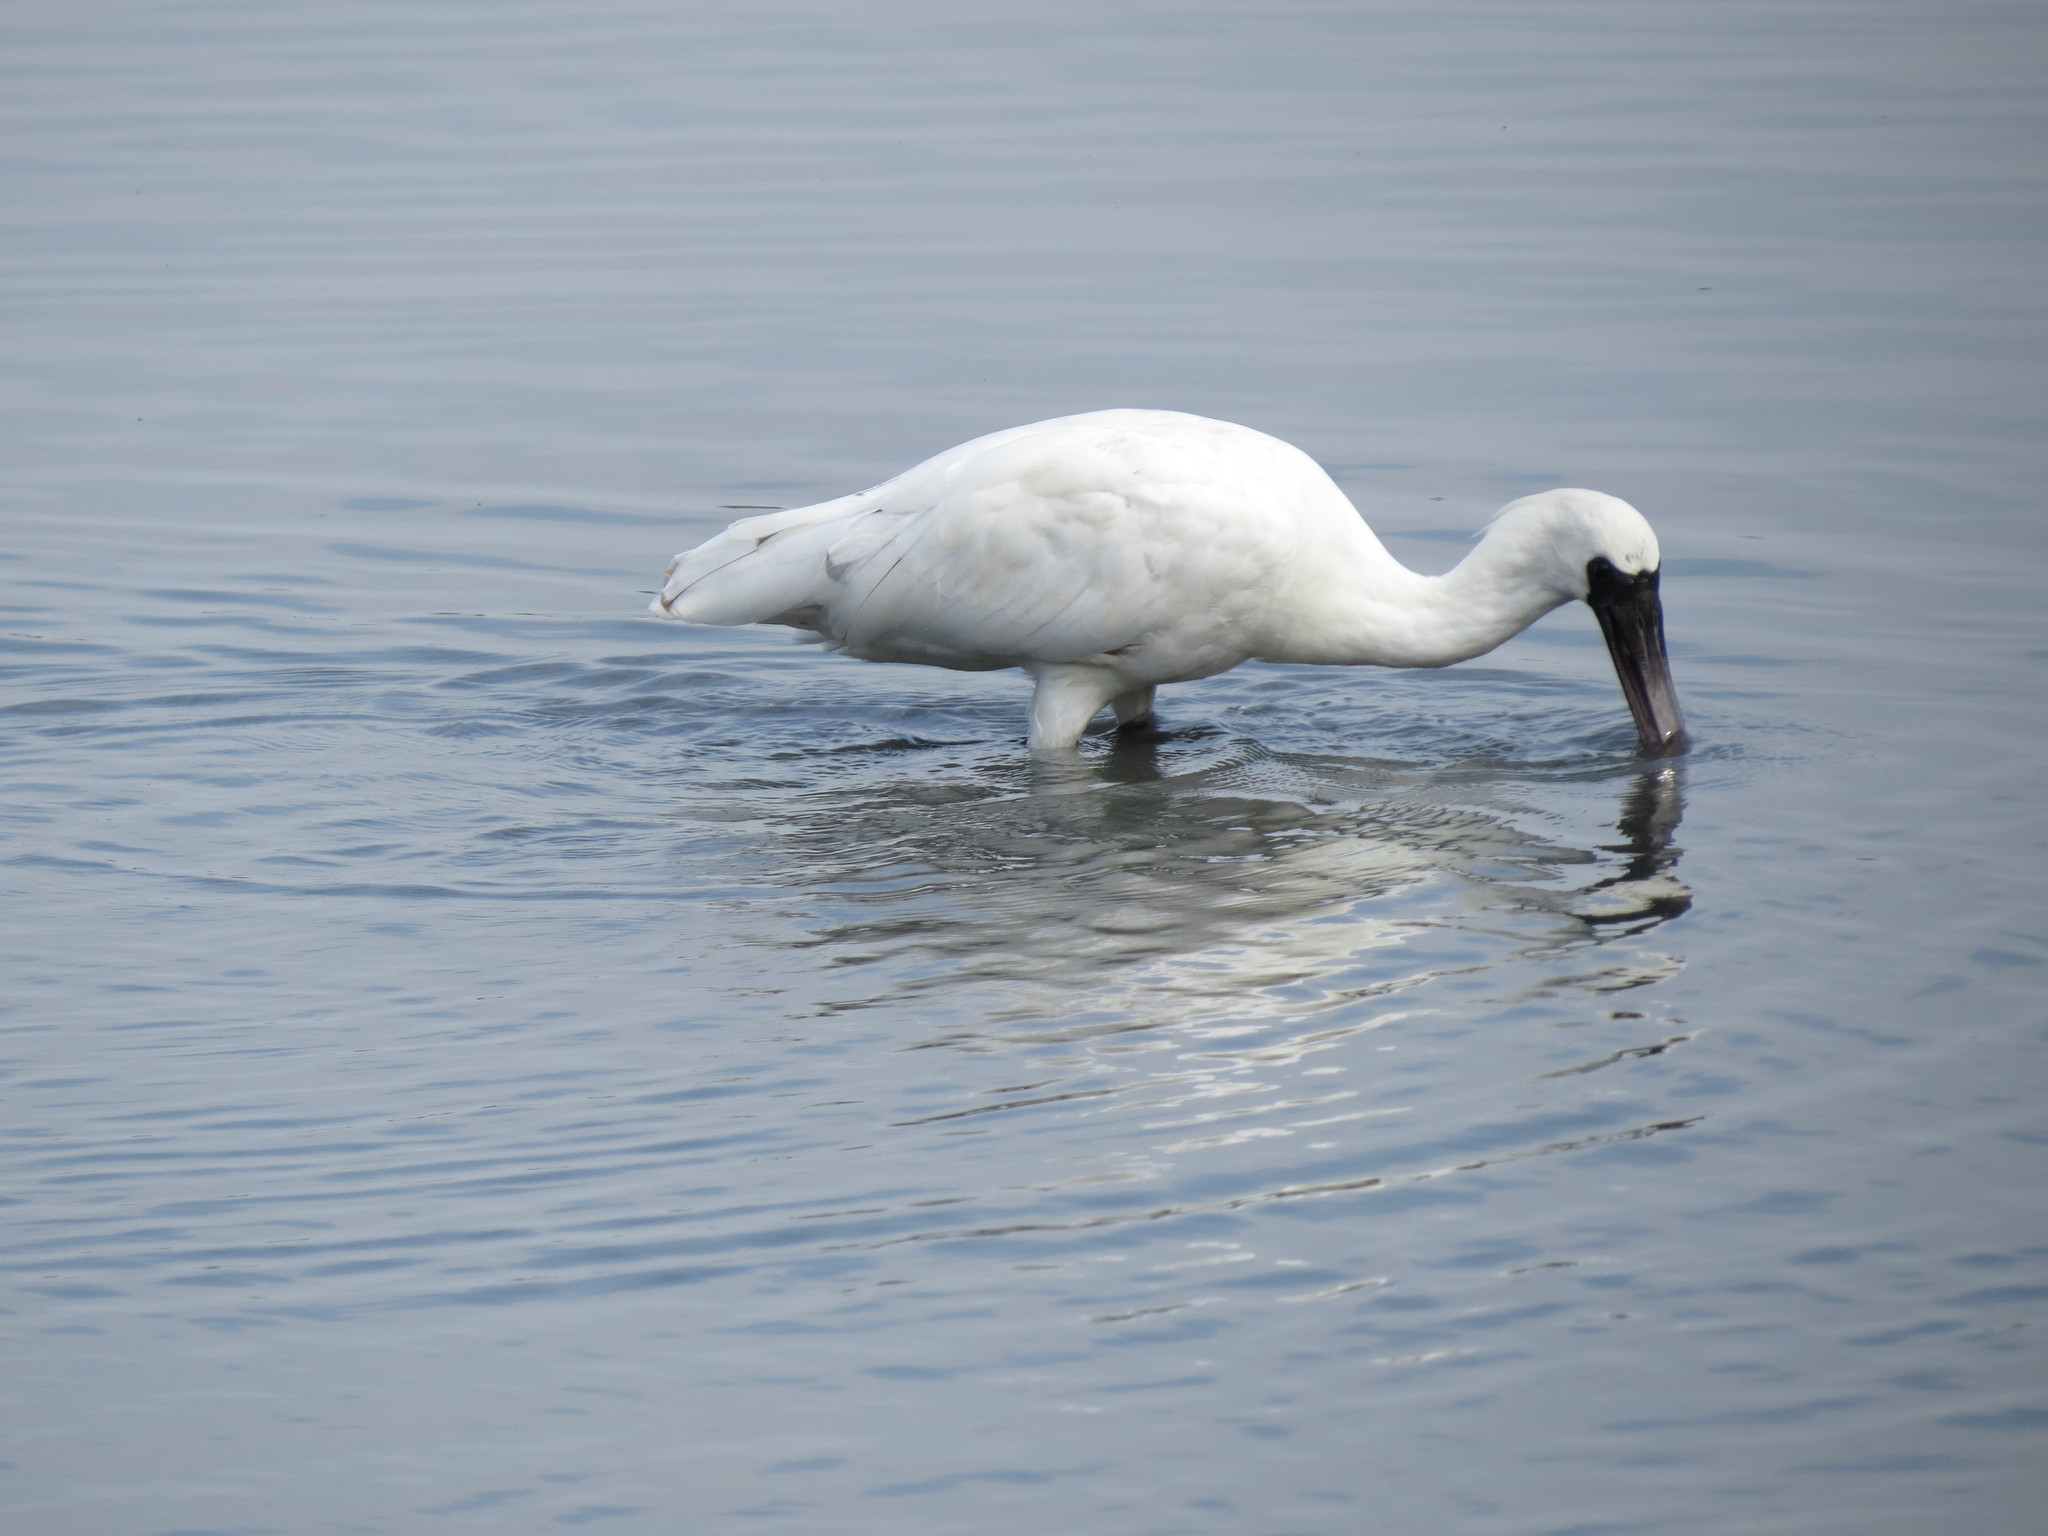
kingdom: Animalia
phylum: Chordata
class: Aves
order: Pelecaniformes
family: Threskiornithidae
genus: Platalea
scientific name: Platalea minor
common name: Black-faced spoonbill
